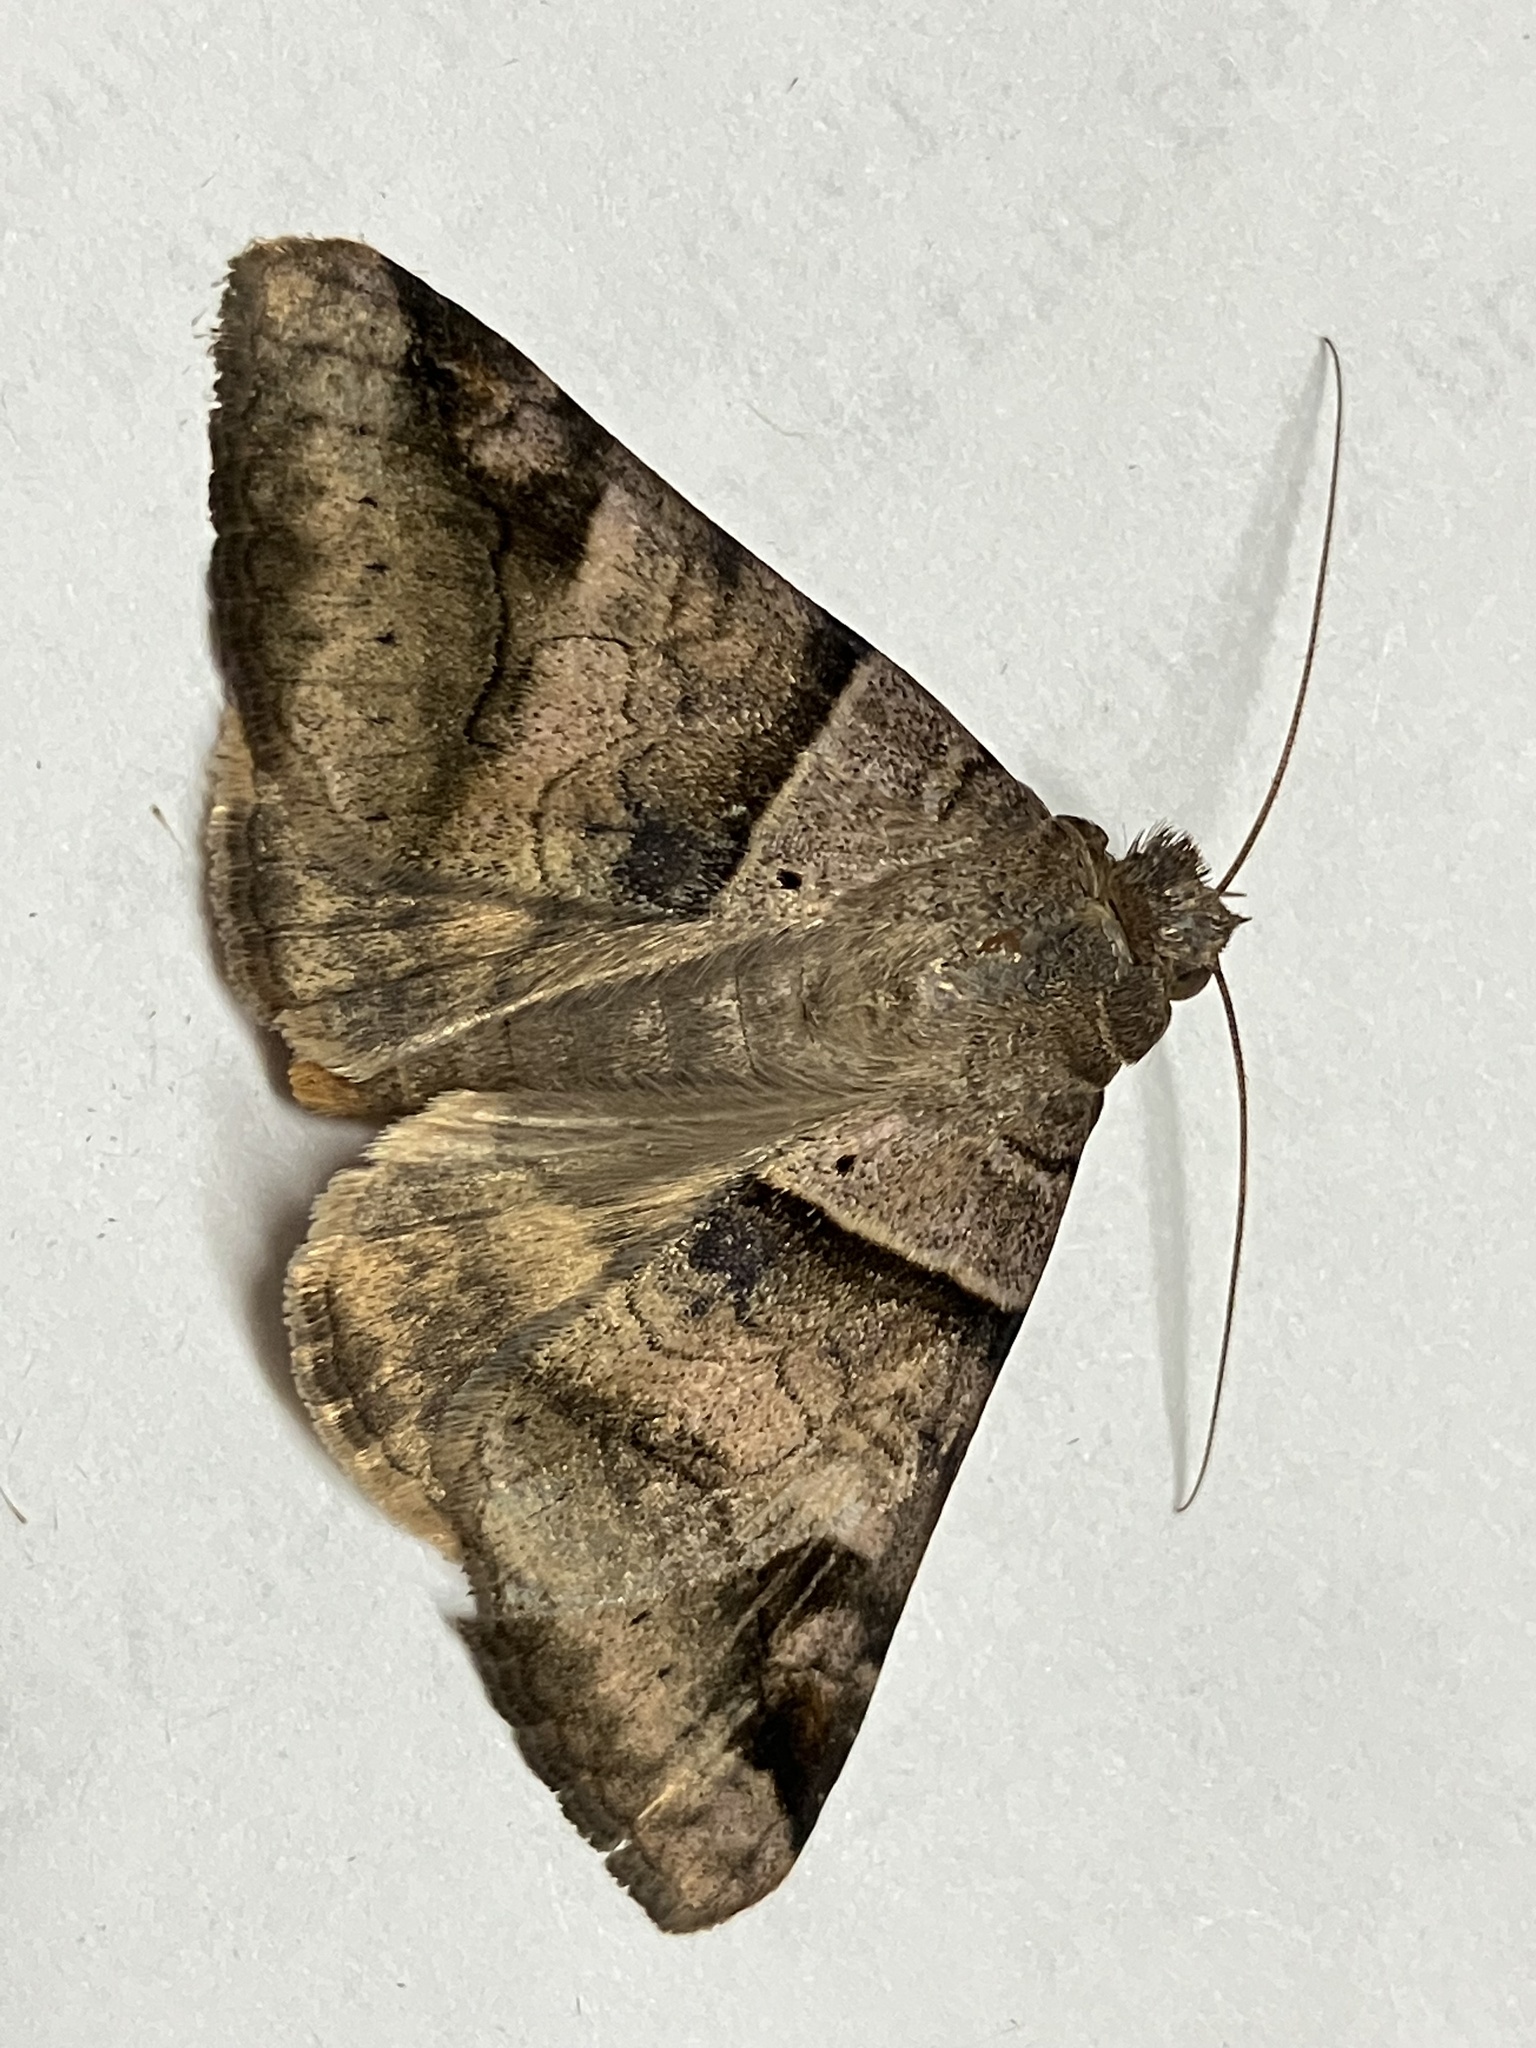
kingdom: Animalia
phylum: Arthropoda
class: Insecta
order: Lepidoptera
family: Erebidae
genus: Mocis
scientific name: Mocis undata
